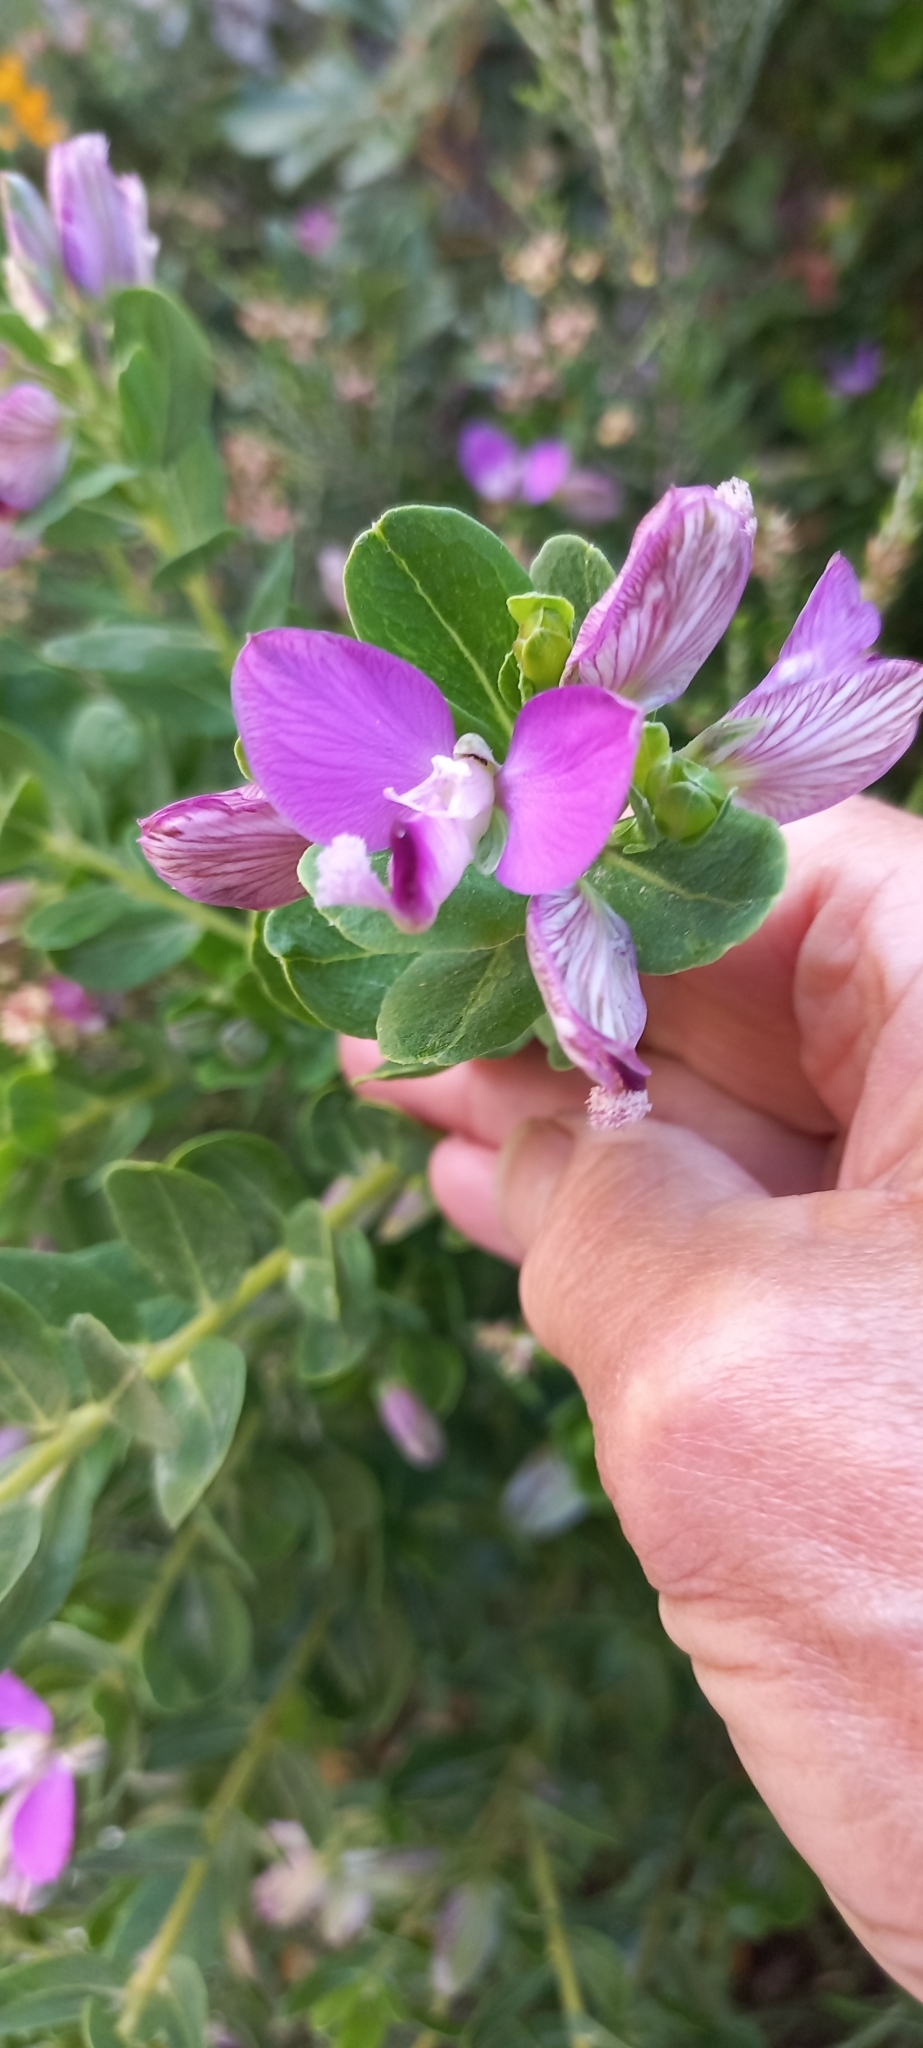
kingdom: Plantae
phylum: Tracheophyta
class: Magnoliopsida
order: Fabales
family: Polygalaceae
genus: Polygala
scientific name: Polygala myrtifolia
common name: Myrtle-leaf milkwort
